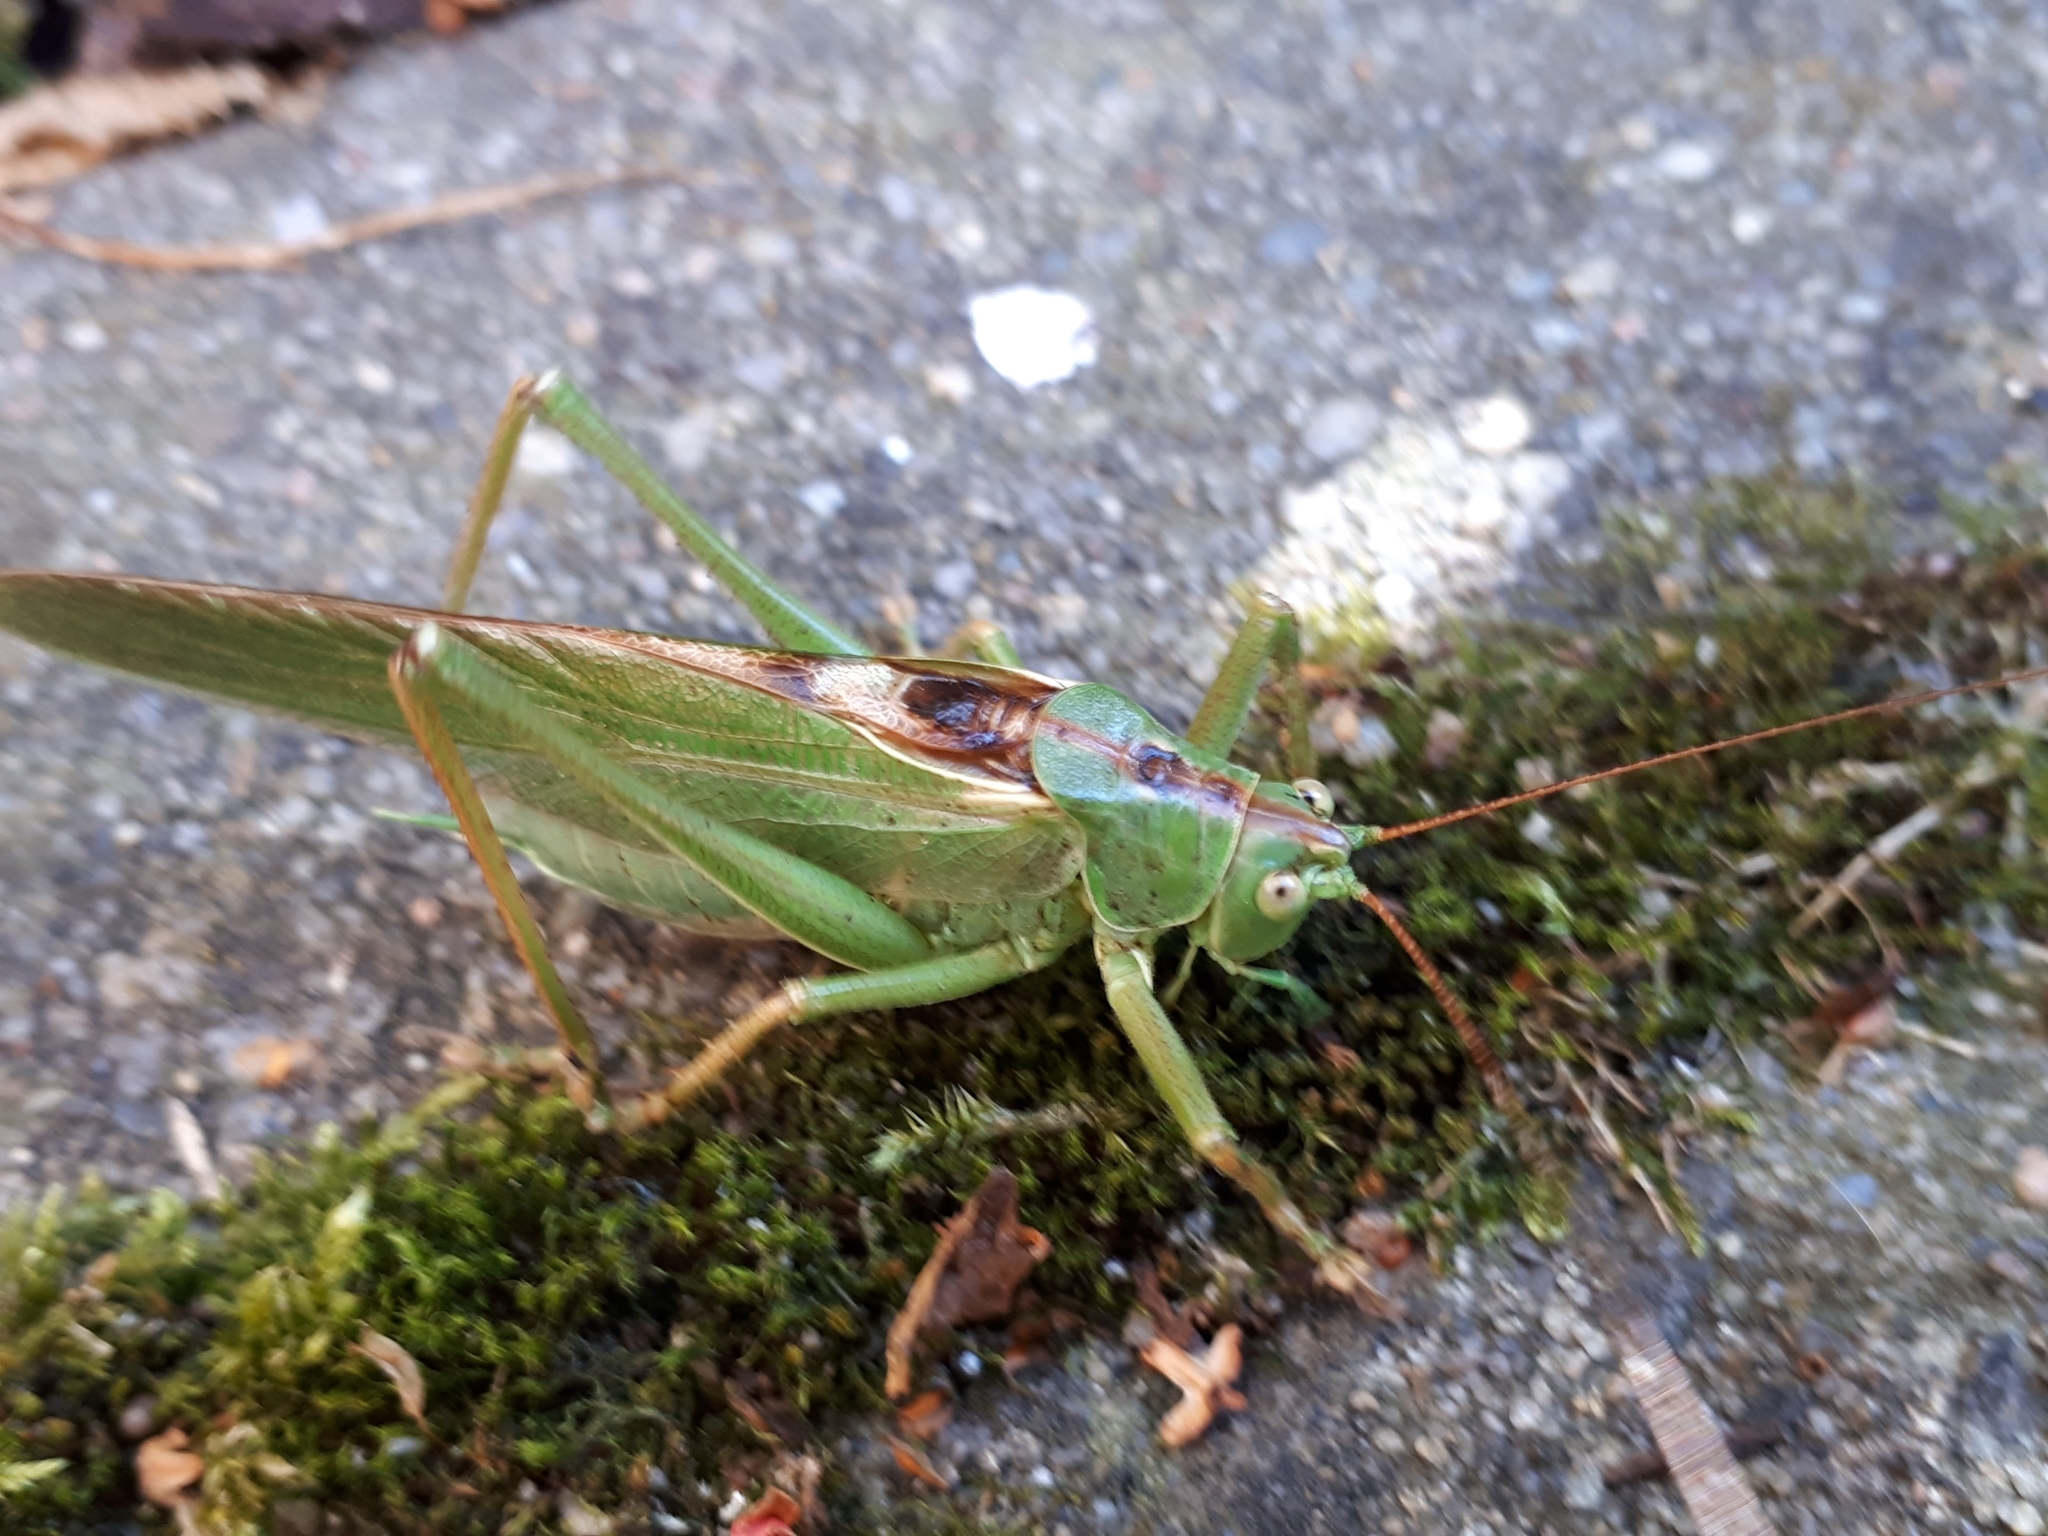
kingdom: Animalia
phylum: Arthropoda
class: Insecta
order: Orthoptera
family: Tettigoniidae
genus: Tettigonia
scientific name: Tettigonia viridissima
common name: Great green bush-cricket
